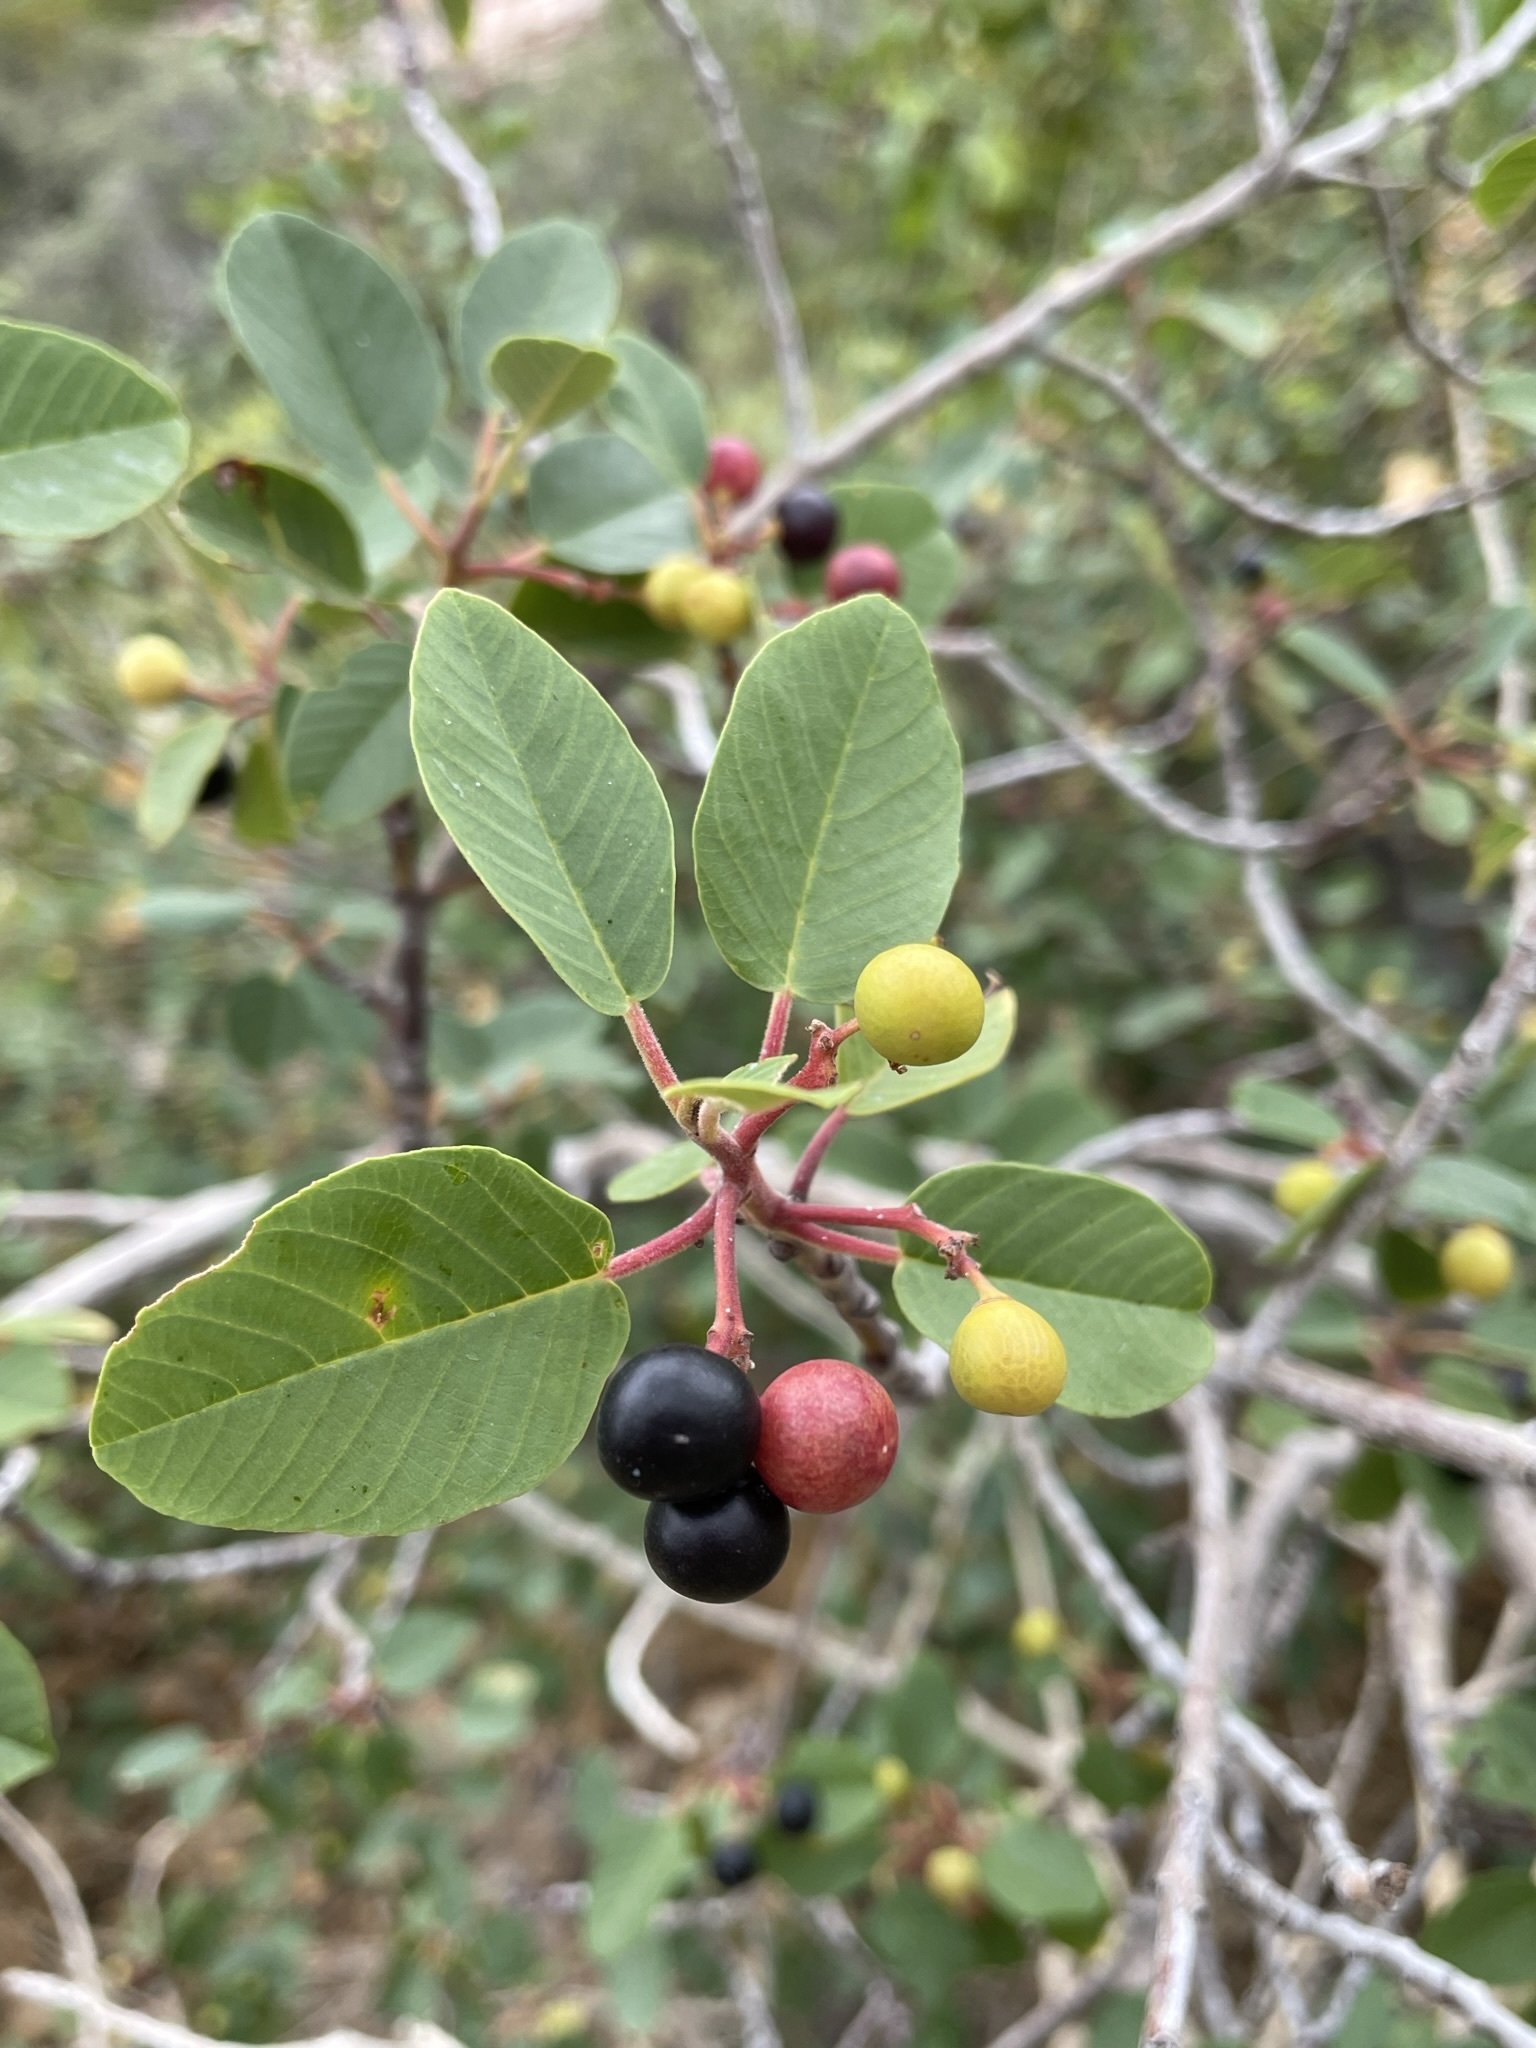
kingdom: Plantae
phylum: Tracheophyta
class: Magnoliopsida
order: Rosales
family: Rhamnaceae
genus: Frangula
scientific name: Frangula californica
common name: California buckthorn
